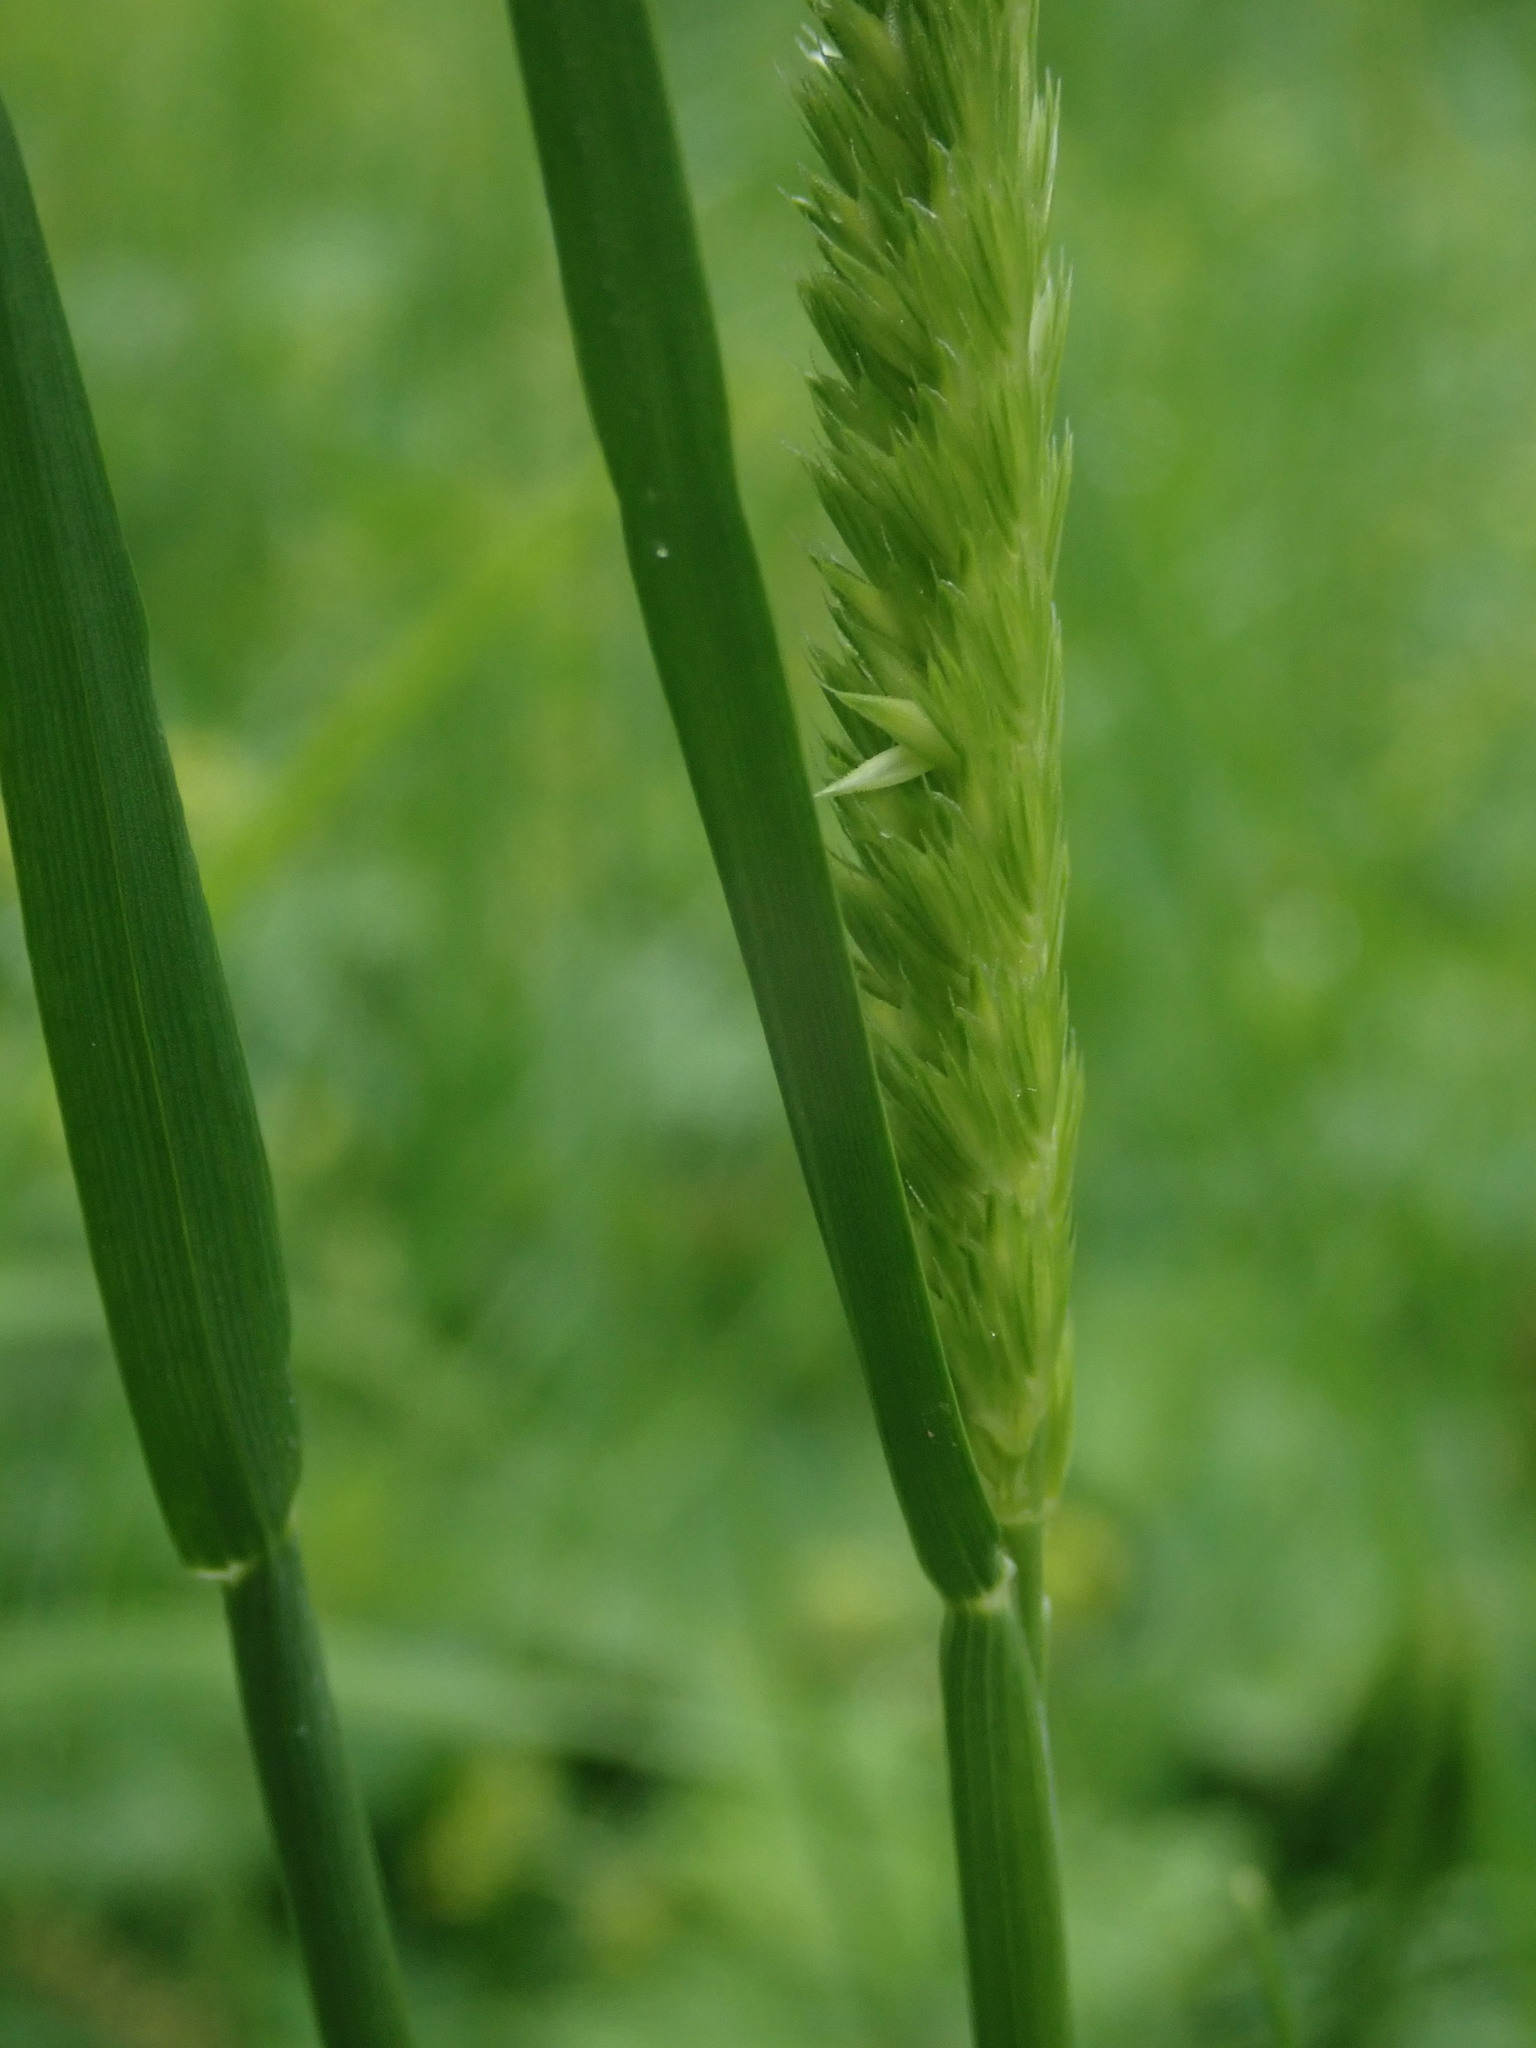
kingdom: Plantae
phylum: Tracheophyta
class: Liliopsida
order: Poales
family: Poaceae
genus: Cynosurus
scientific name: Cynosurus cristatus
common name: Crested dog's-tail
